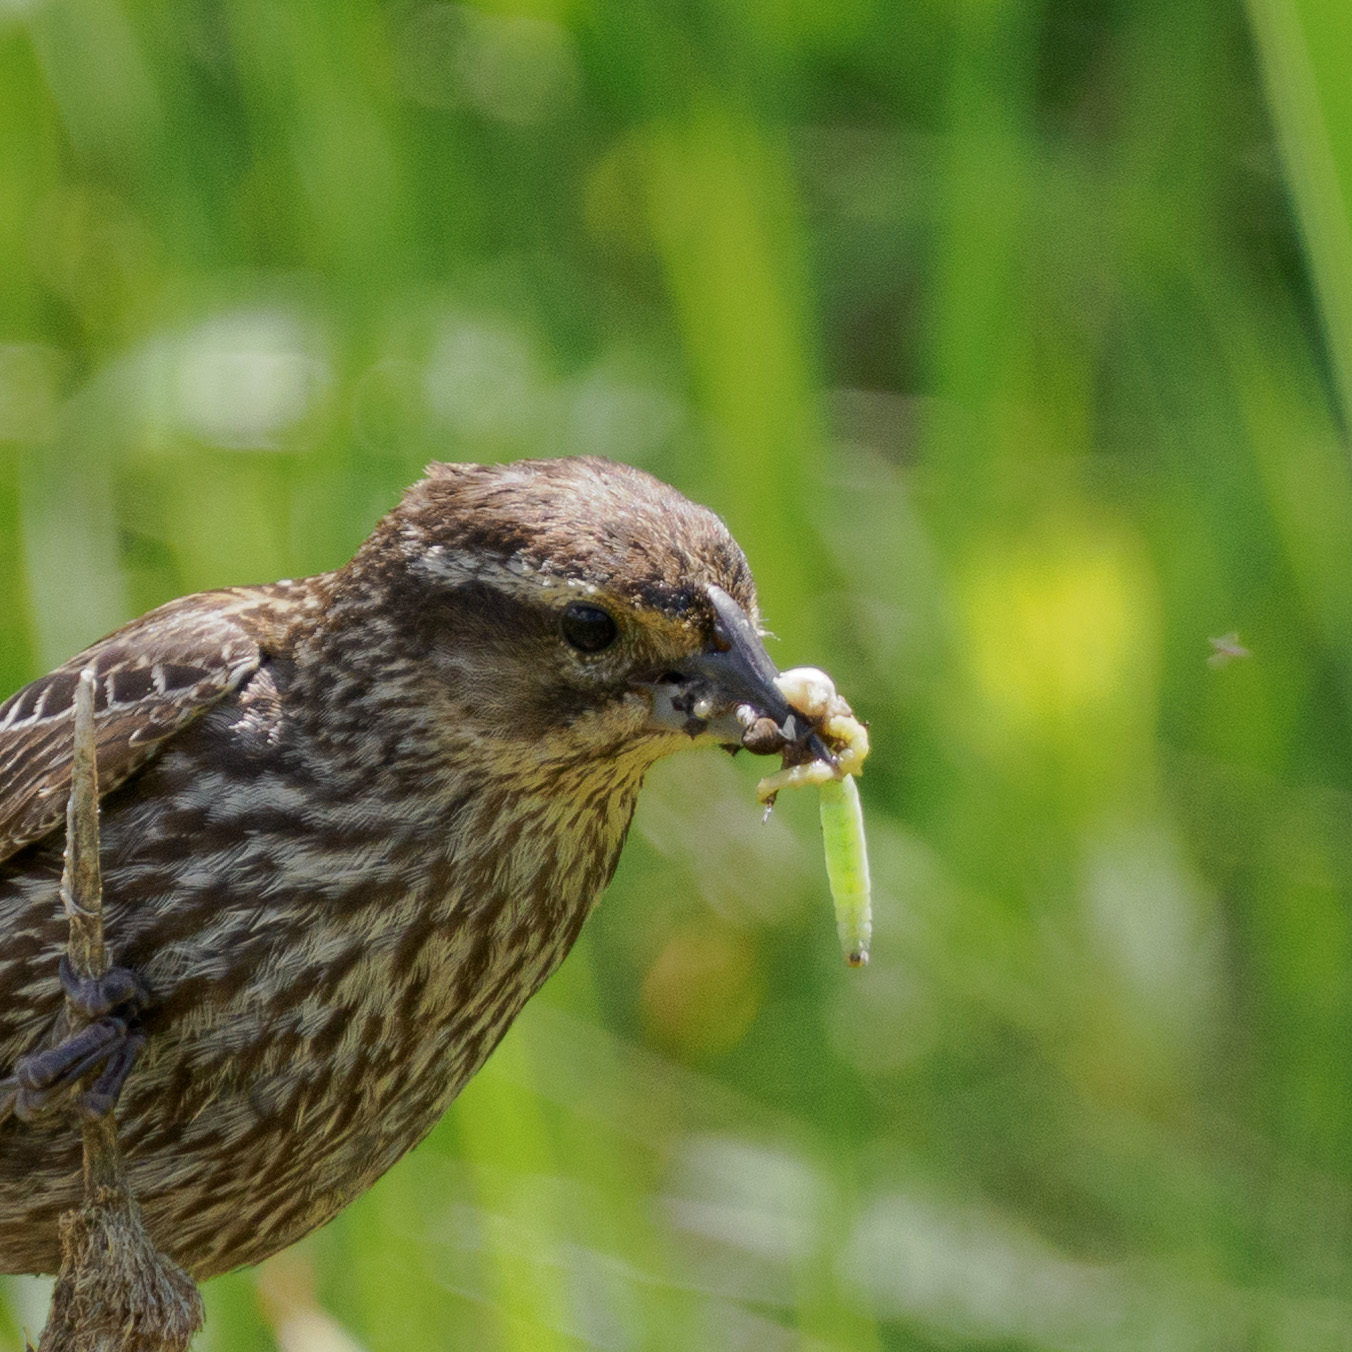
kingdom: Animalia
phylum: Chordata
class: Aves
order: Passeriformes
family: Icteridae
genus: Agelaius
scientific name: Agelaius phoeniceus
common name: Red-winged blackbird
